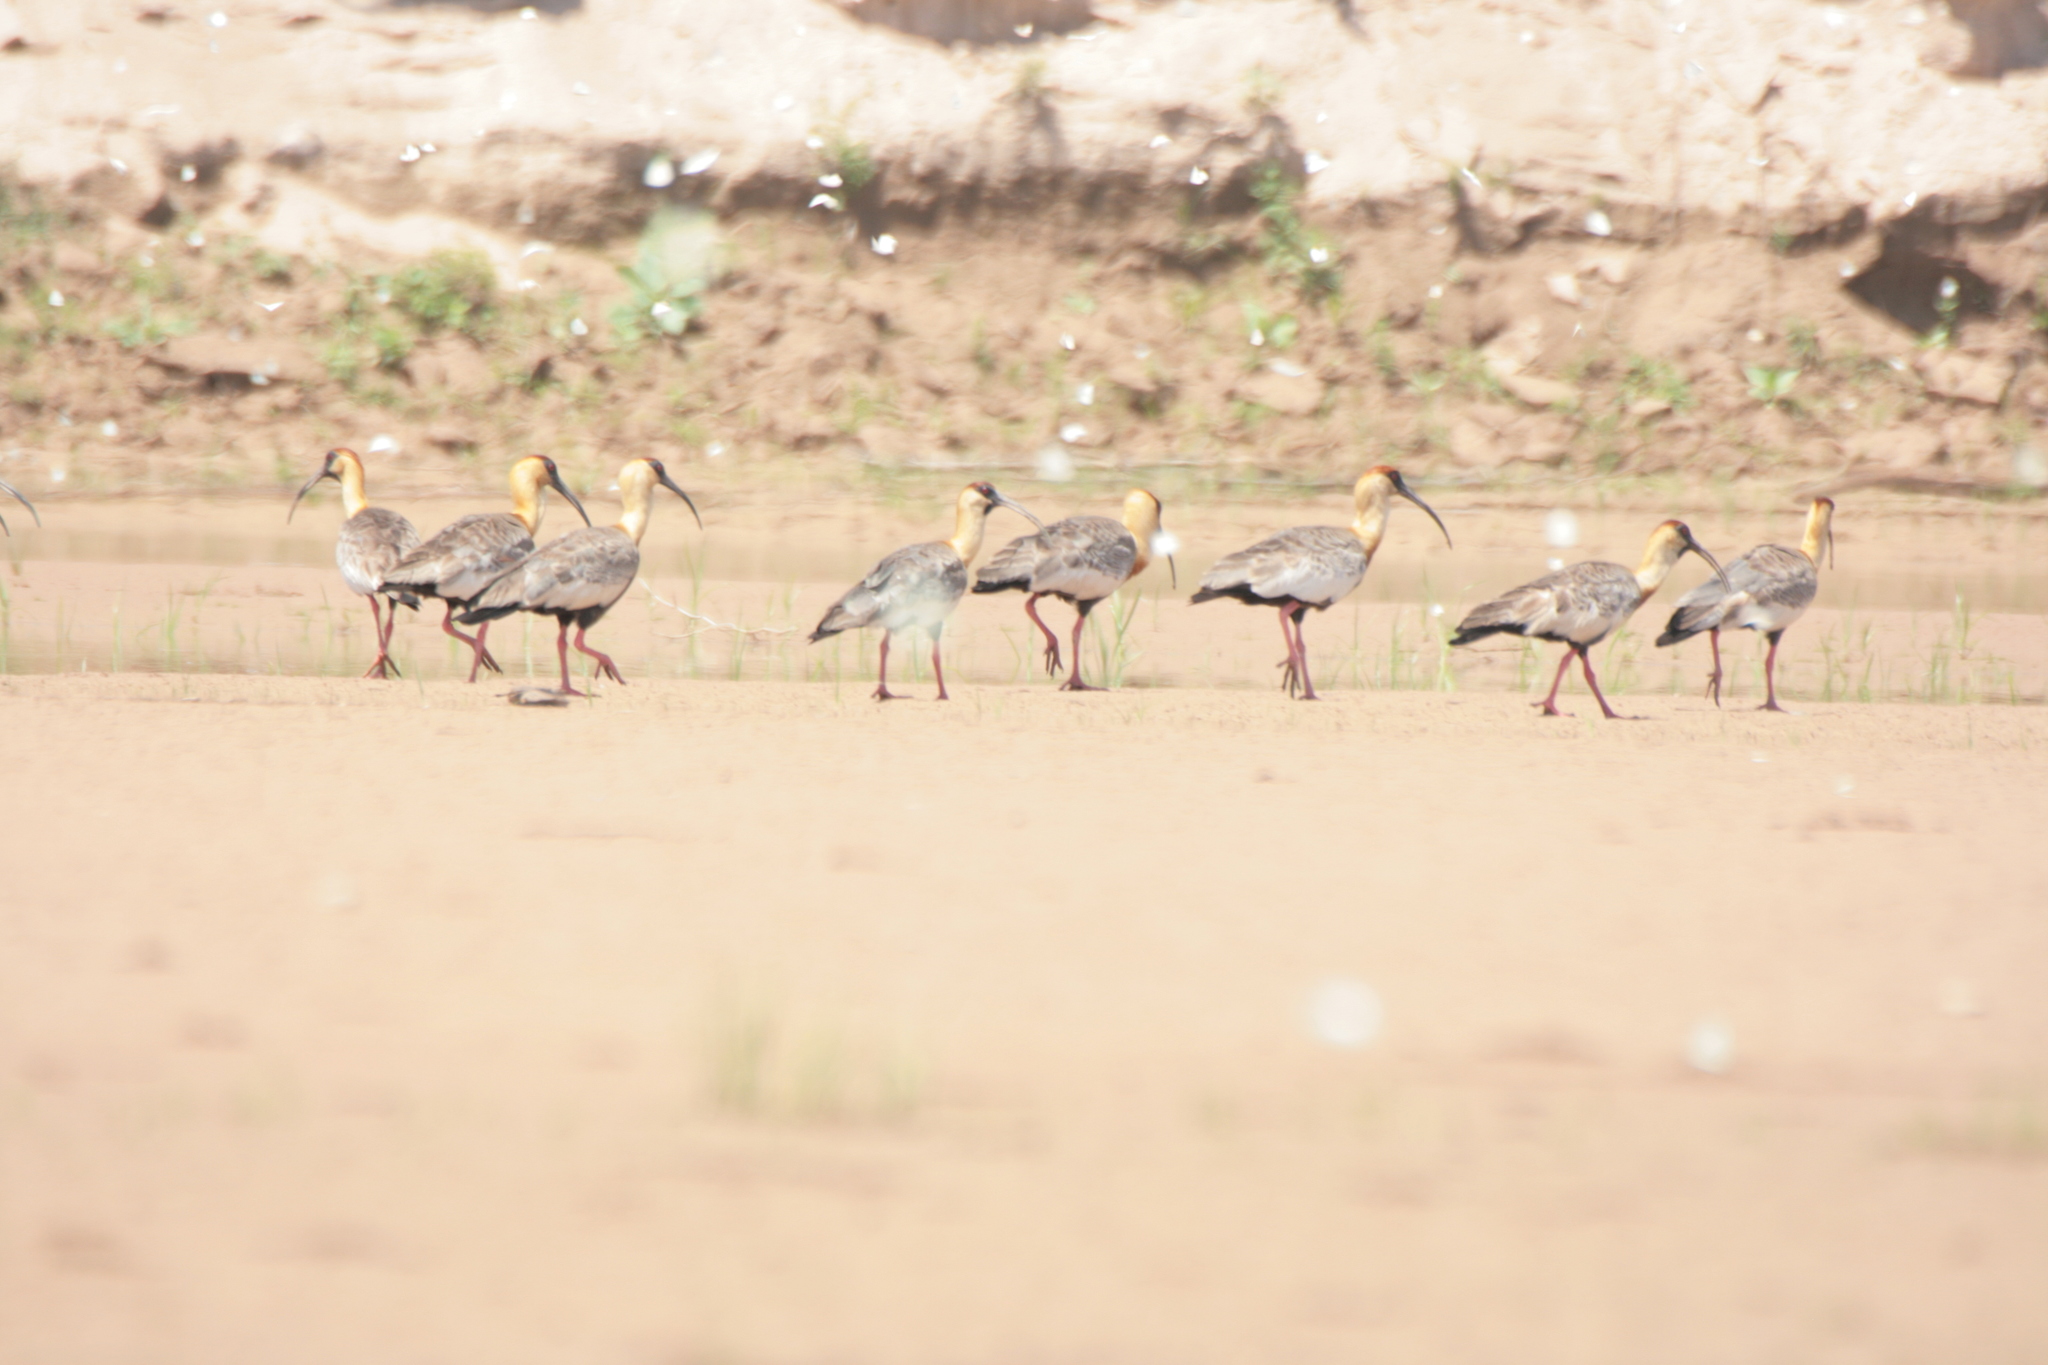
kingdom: Animalia
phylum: Chordata
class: Aves
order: Pelecaniformes
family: Threskiornithidae
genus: Theristicus
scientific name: Theristicus caudatus
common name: Buff-necked ibis
